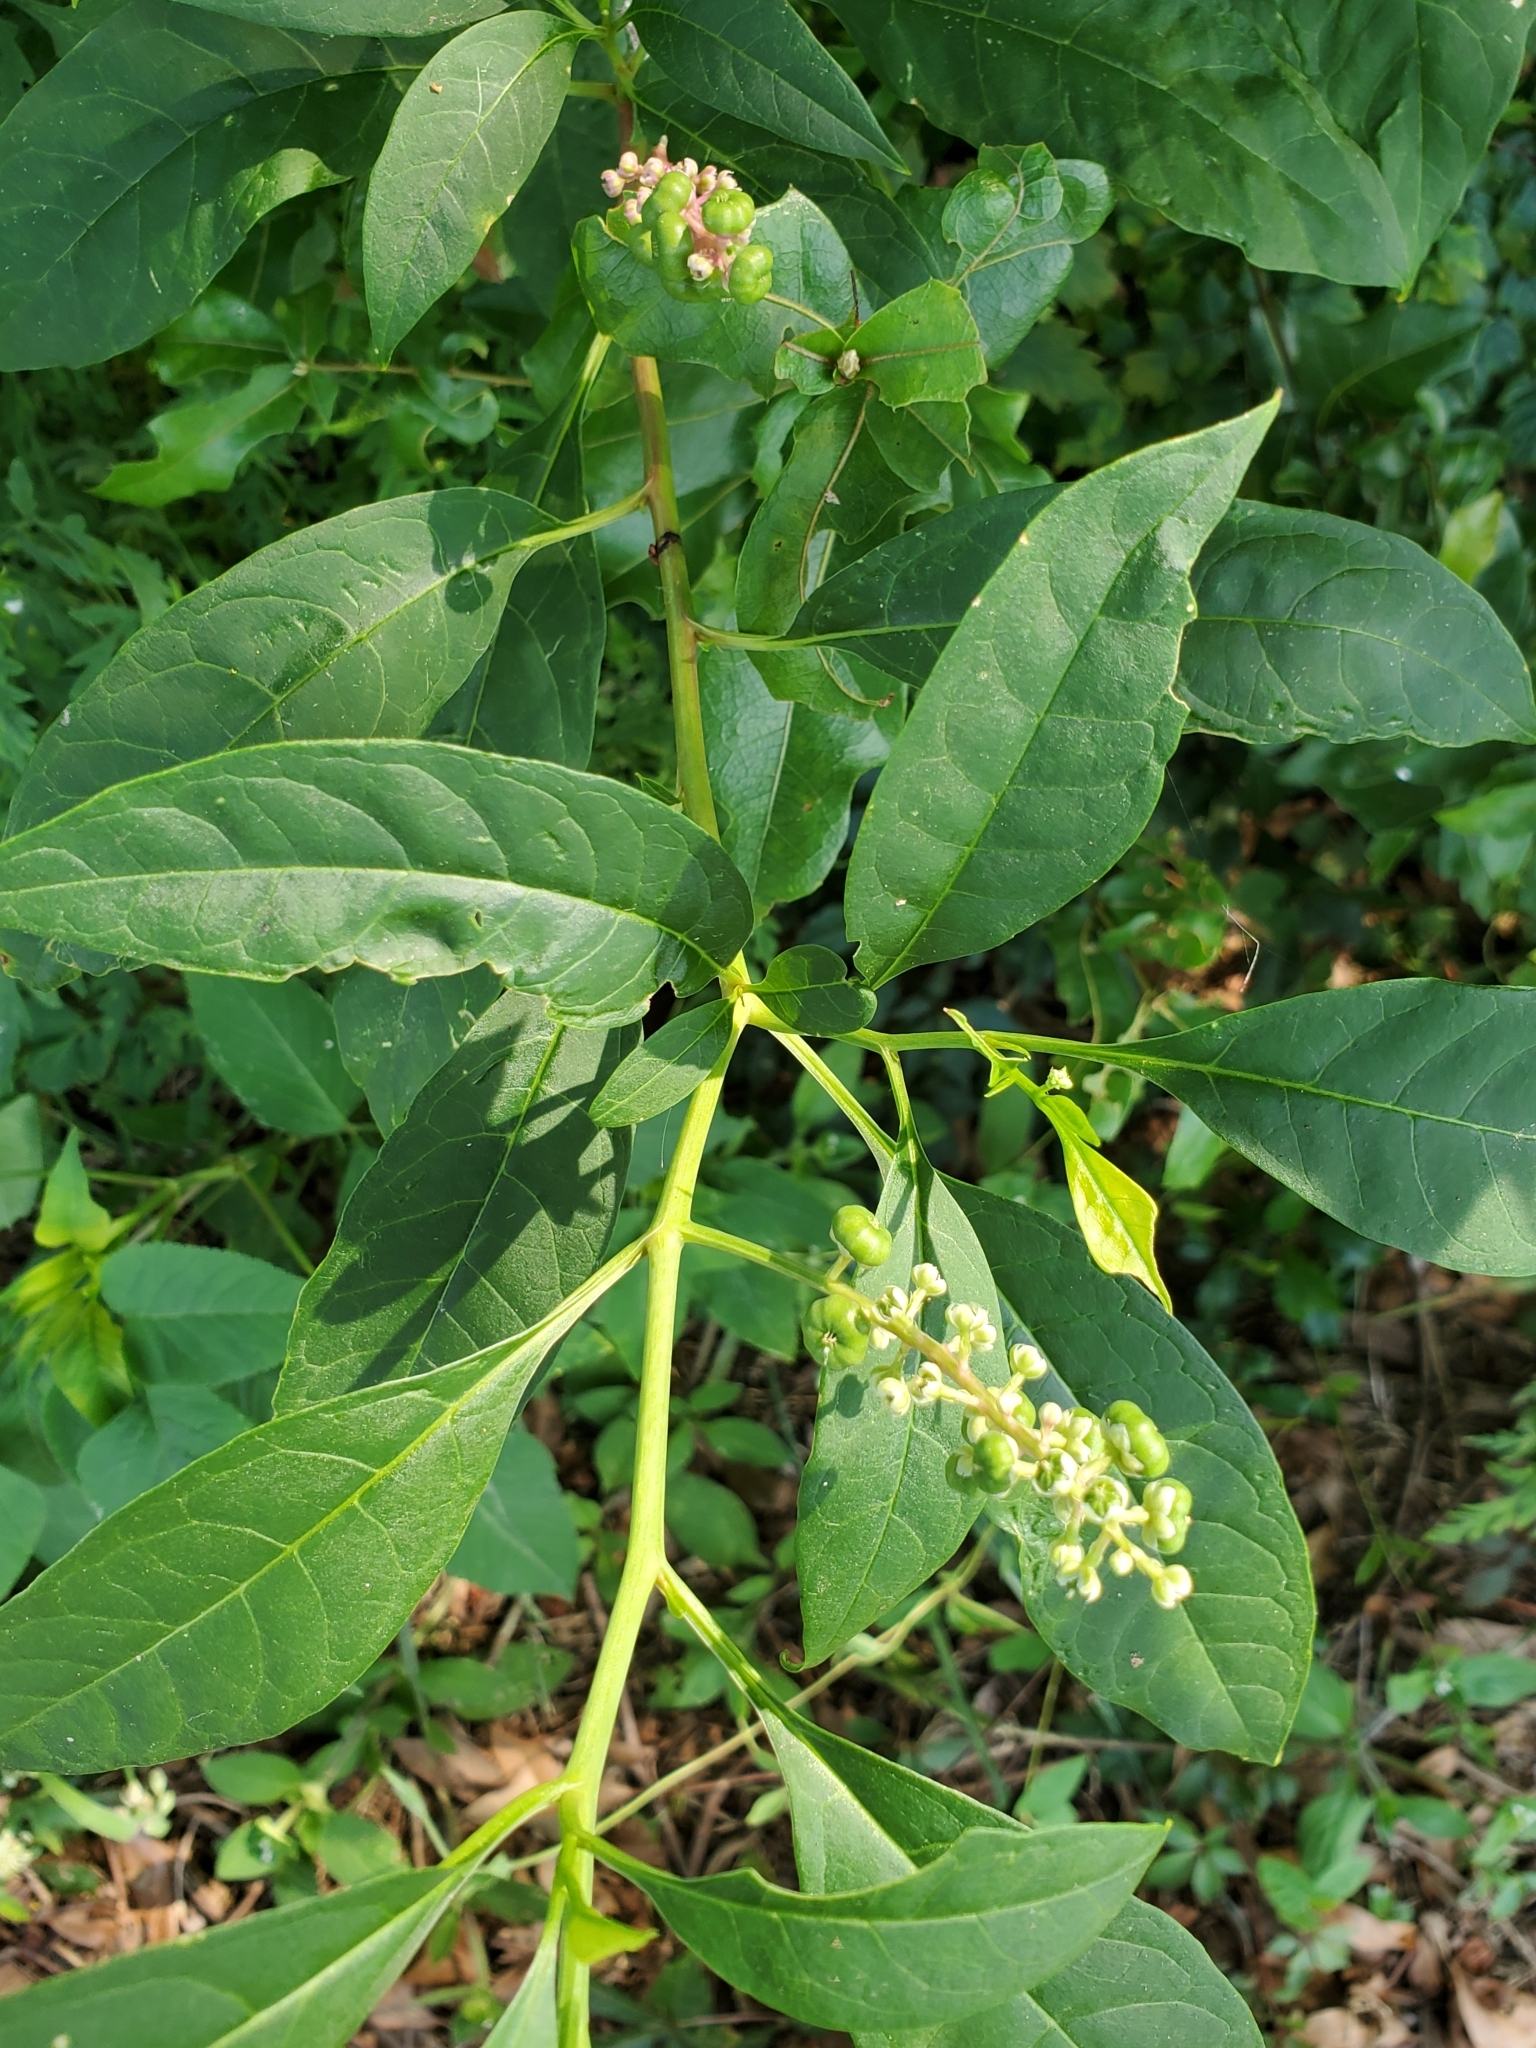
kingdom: Plantae
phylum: Tracheophyta
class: Magnoliopsida
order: Caryophyllales
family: Phytolaccaceae
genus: Phytolacca
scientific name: Phytolacca americana
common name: American pokeweed
